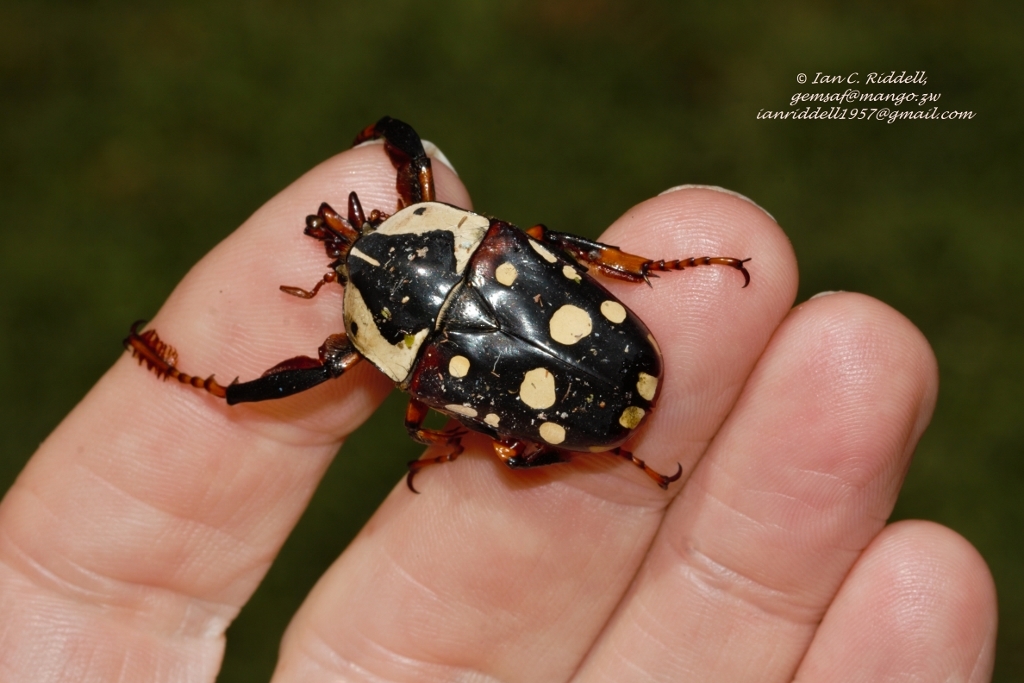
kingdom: Animalia
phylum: Arthropoda
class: Insecta
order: Coleoptera
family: Scarabaeidae
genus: Cheirolasia
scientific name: Cheirolasia burkei
